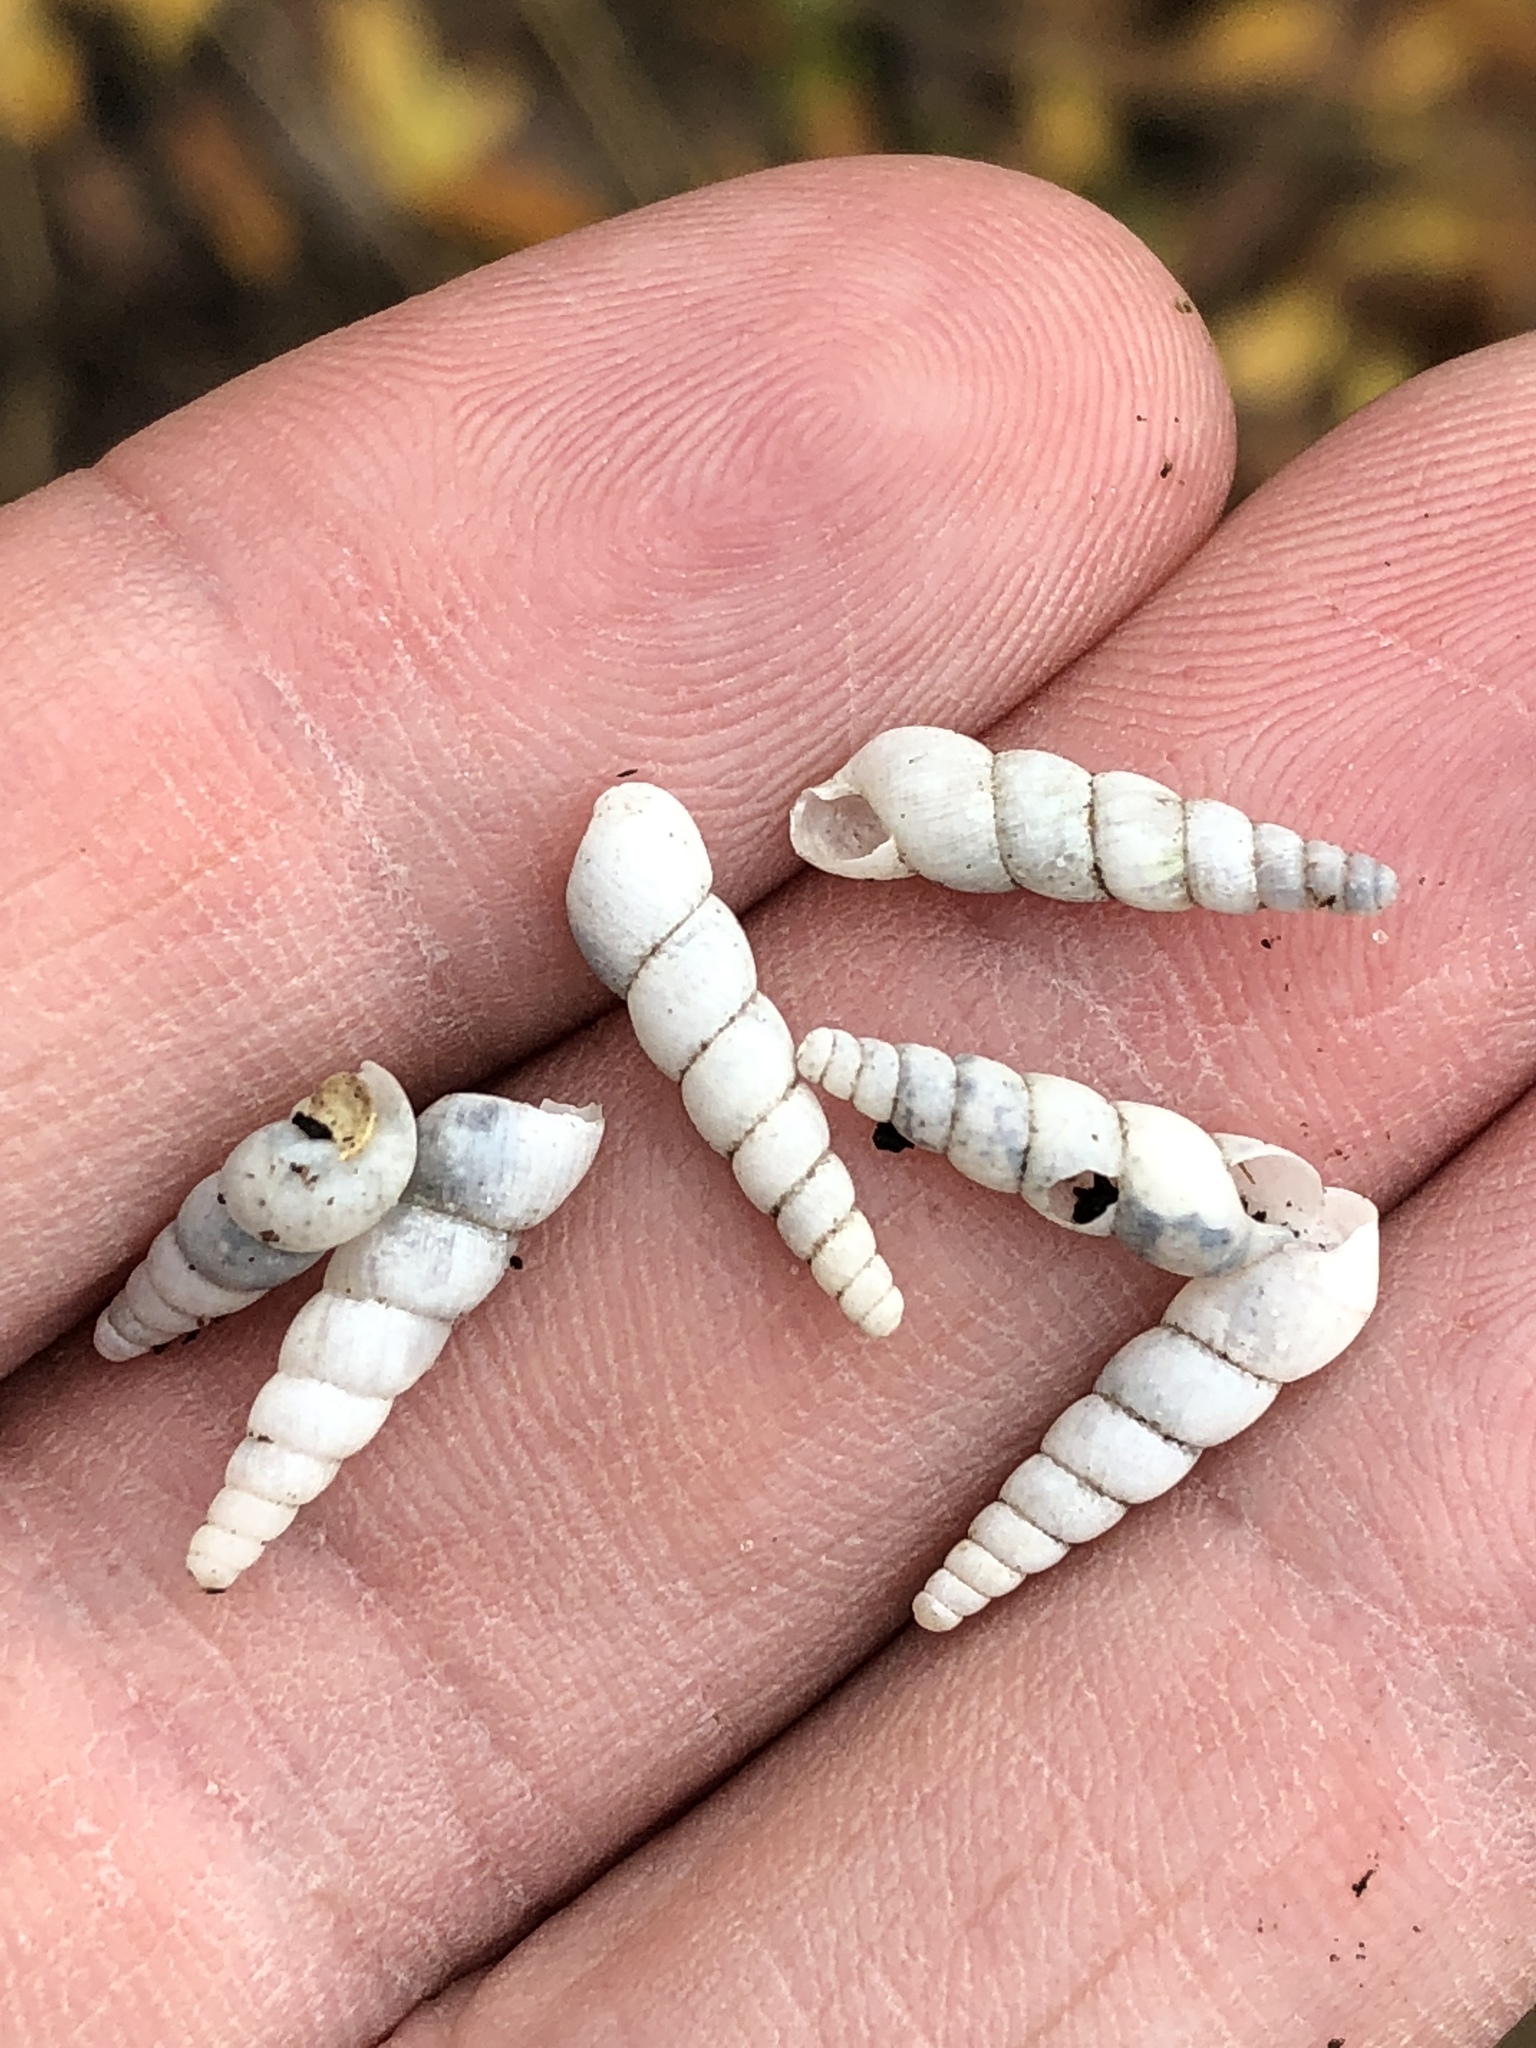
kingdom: Animalia
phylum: Mollusca
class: Gastropoda
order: Stylommatophora
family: Achatinidae
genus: Subulina
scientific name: Subulina octona
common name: Miniature awlsnail
